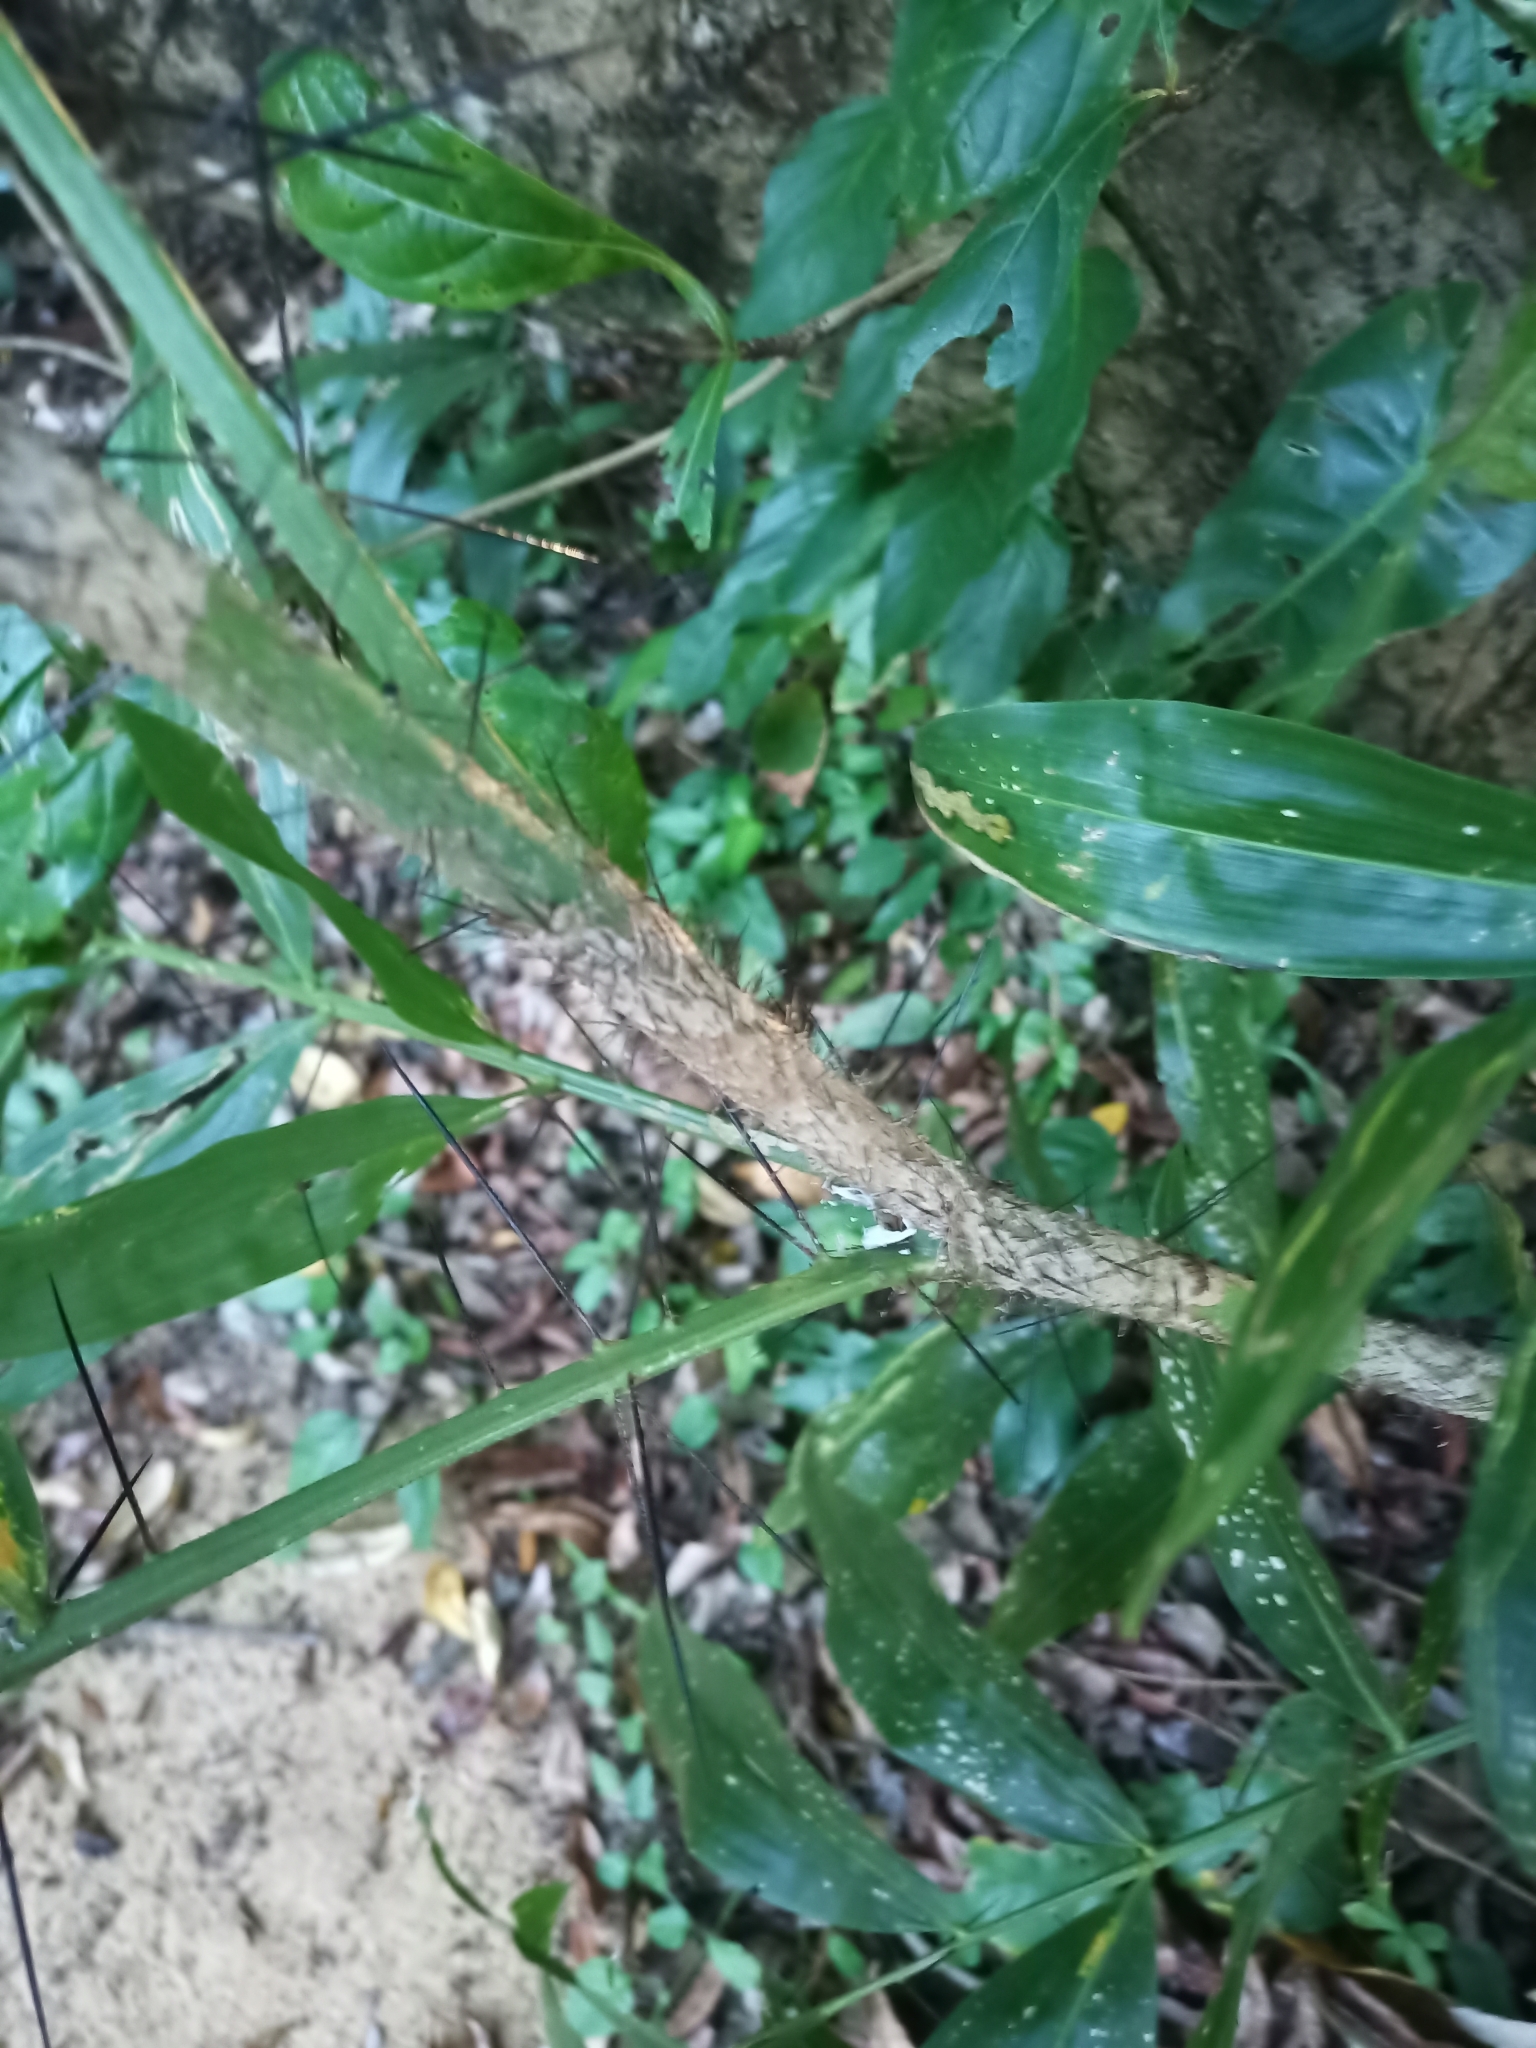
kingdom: Plantae
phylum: Tracheophyta
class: Liliopsida
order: Arecales
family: Arecaceae
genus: Desmoncus
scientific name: Desmoncus horridus
